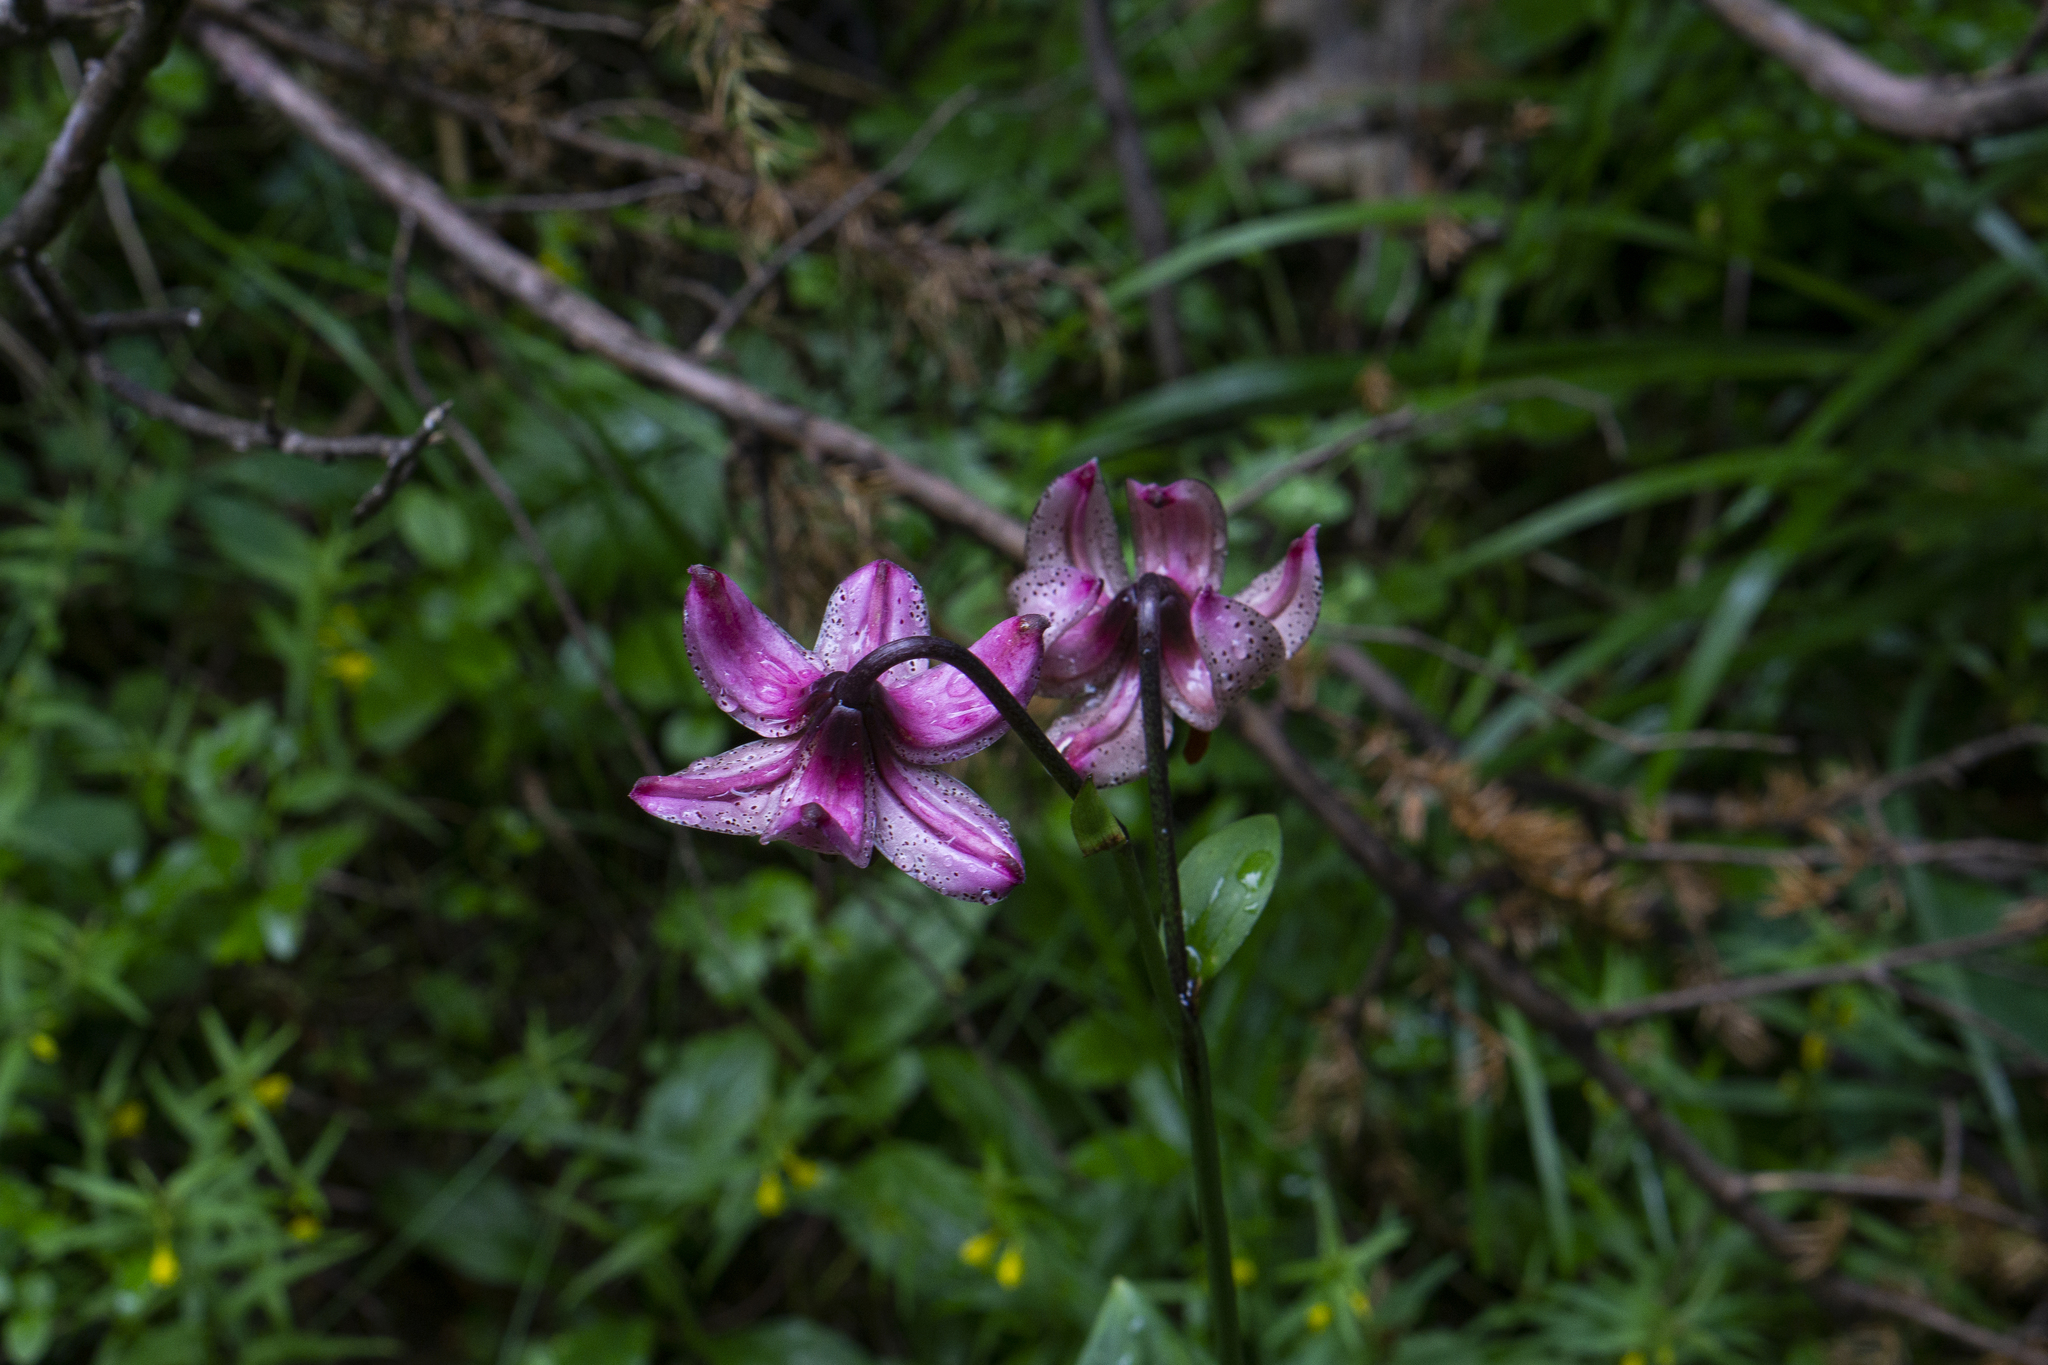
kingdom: Plantae
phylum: Tracheophyta
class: Liliopsida
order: Liliales
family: Liliaceae
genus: Lilium
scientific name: Lilium martagon
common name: Martagon lily
